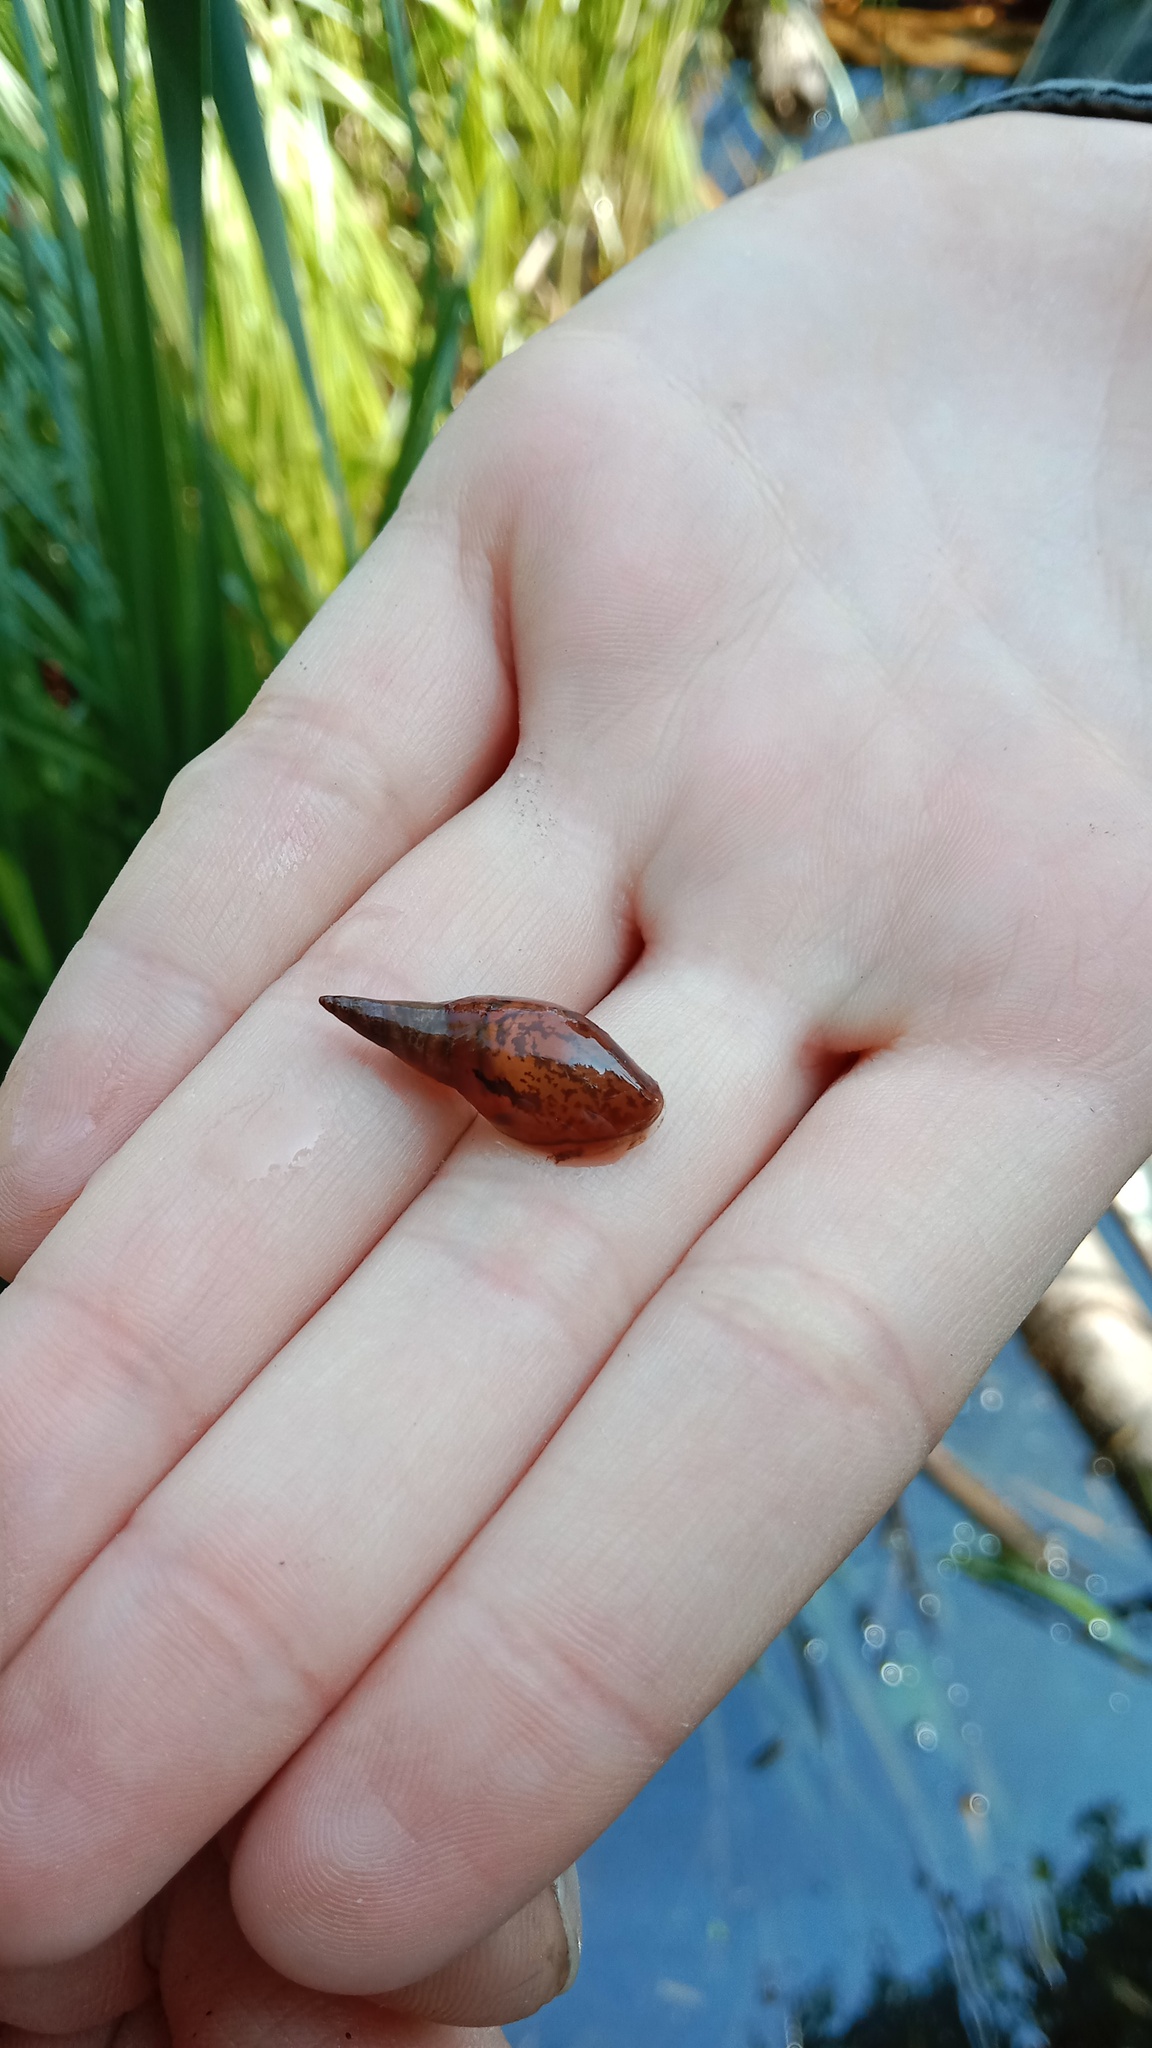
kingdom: Animalia
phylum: Mollusca
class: Gastropoda
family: Lymnaeidae
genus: Lymnaea
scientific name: Lymnaea stagnalis
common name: Great pond snail
